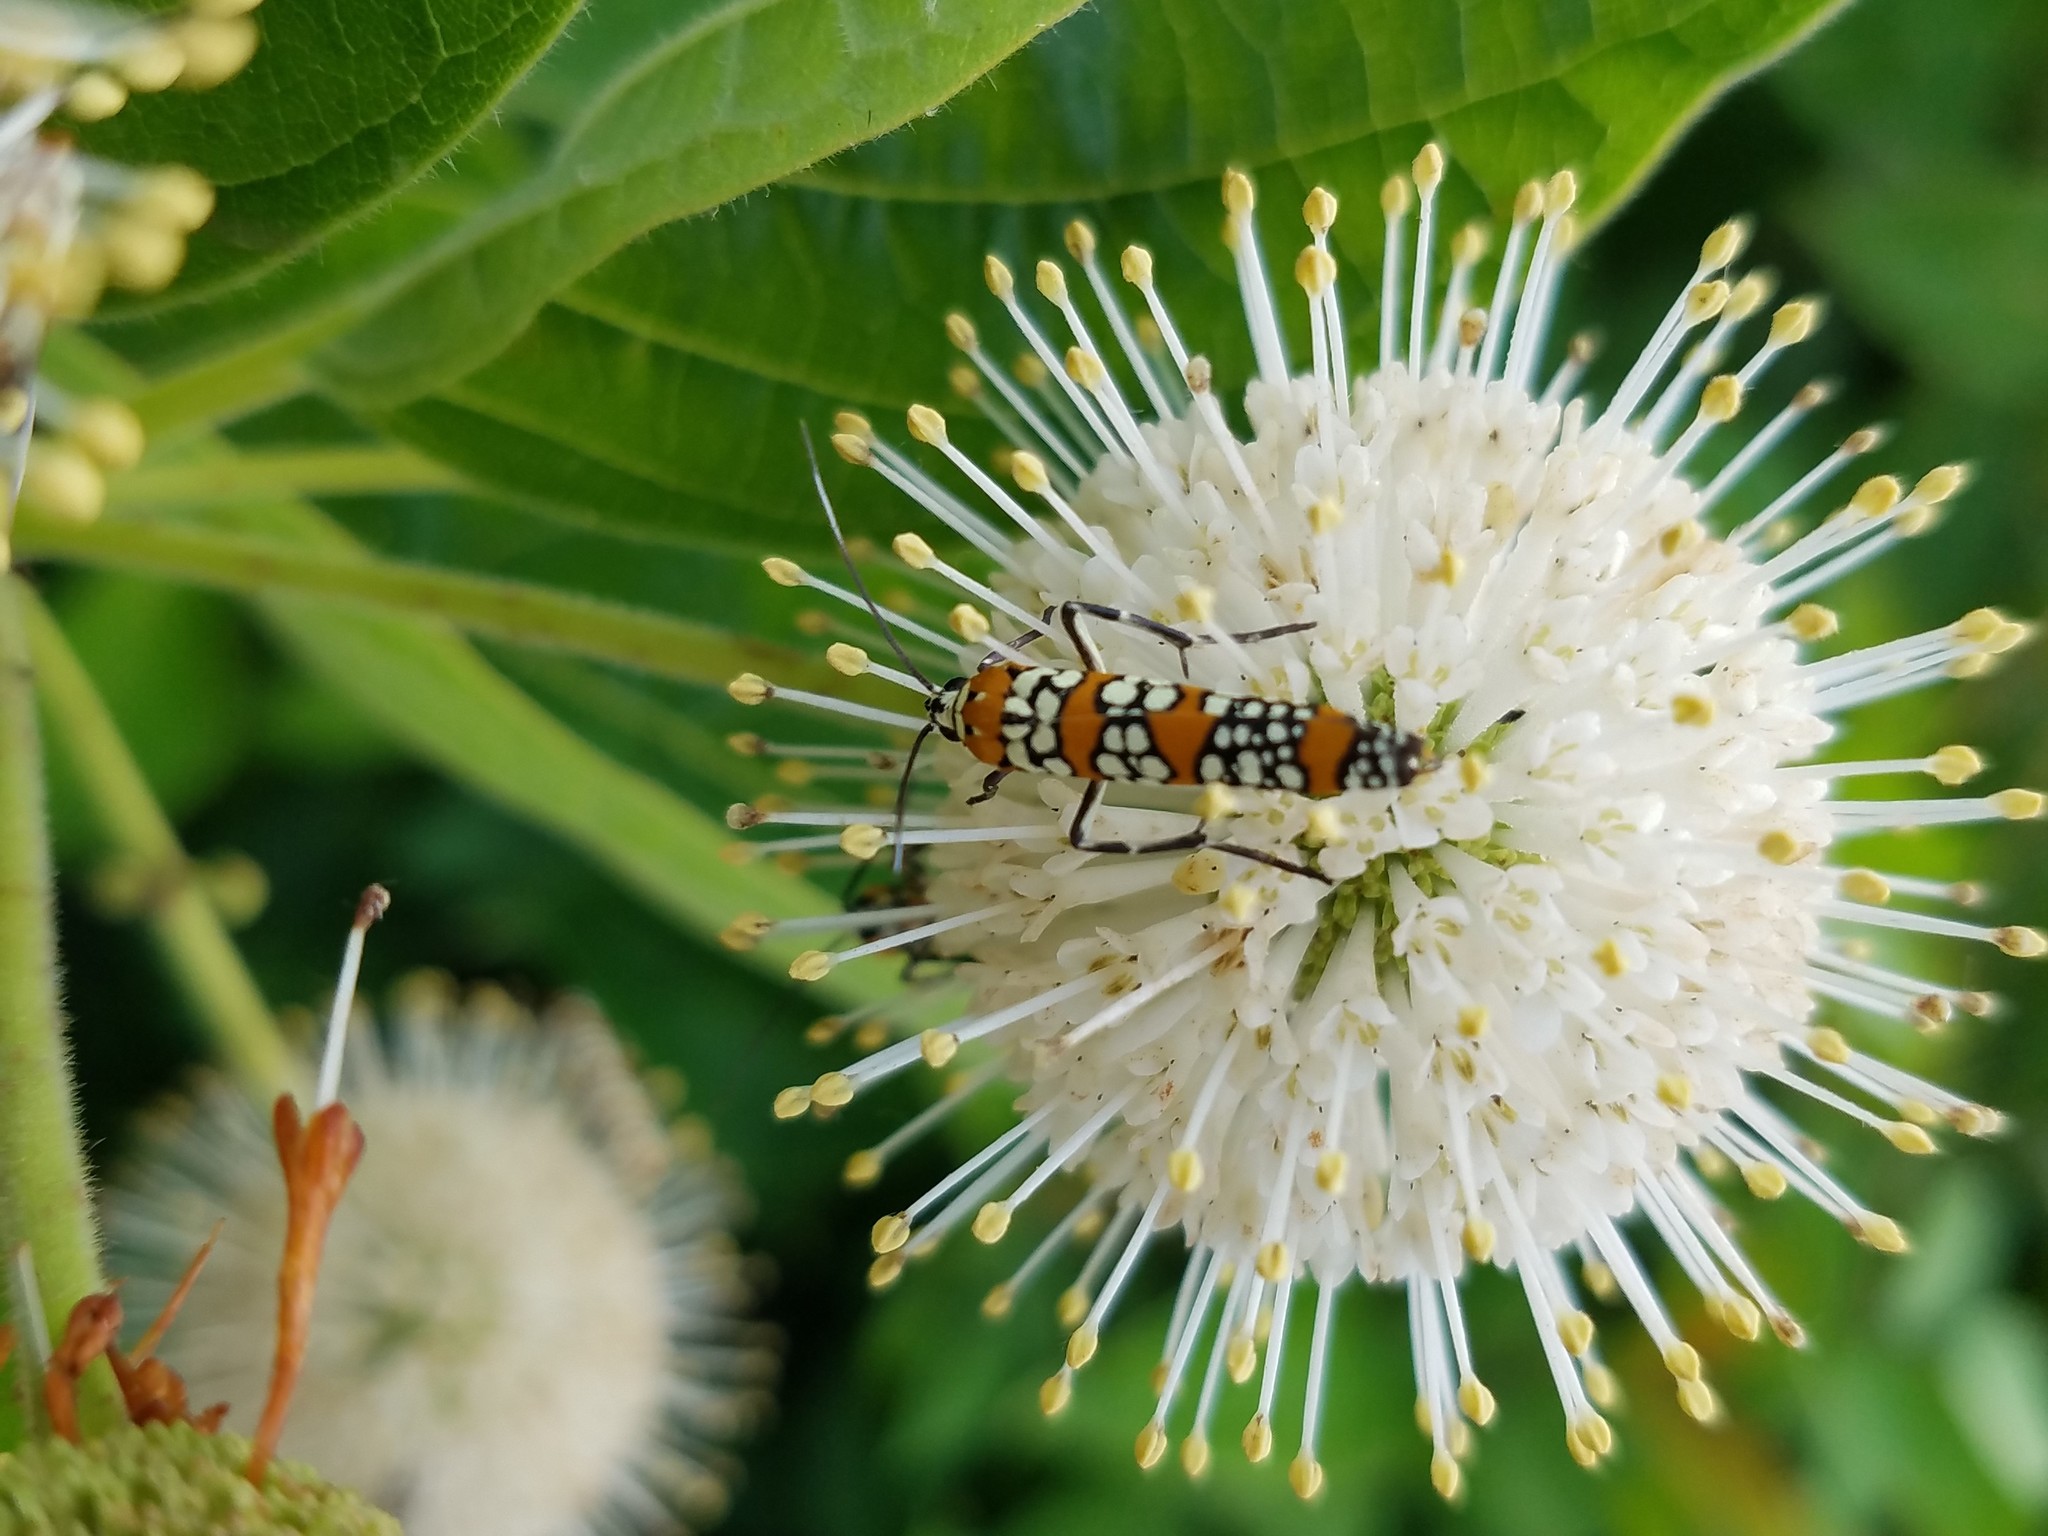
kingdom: Animalia
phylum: Arthropoda
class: Insecta
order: Lepidoptera
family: Attevidae
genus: Atteva
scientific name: Atteva punctella
